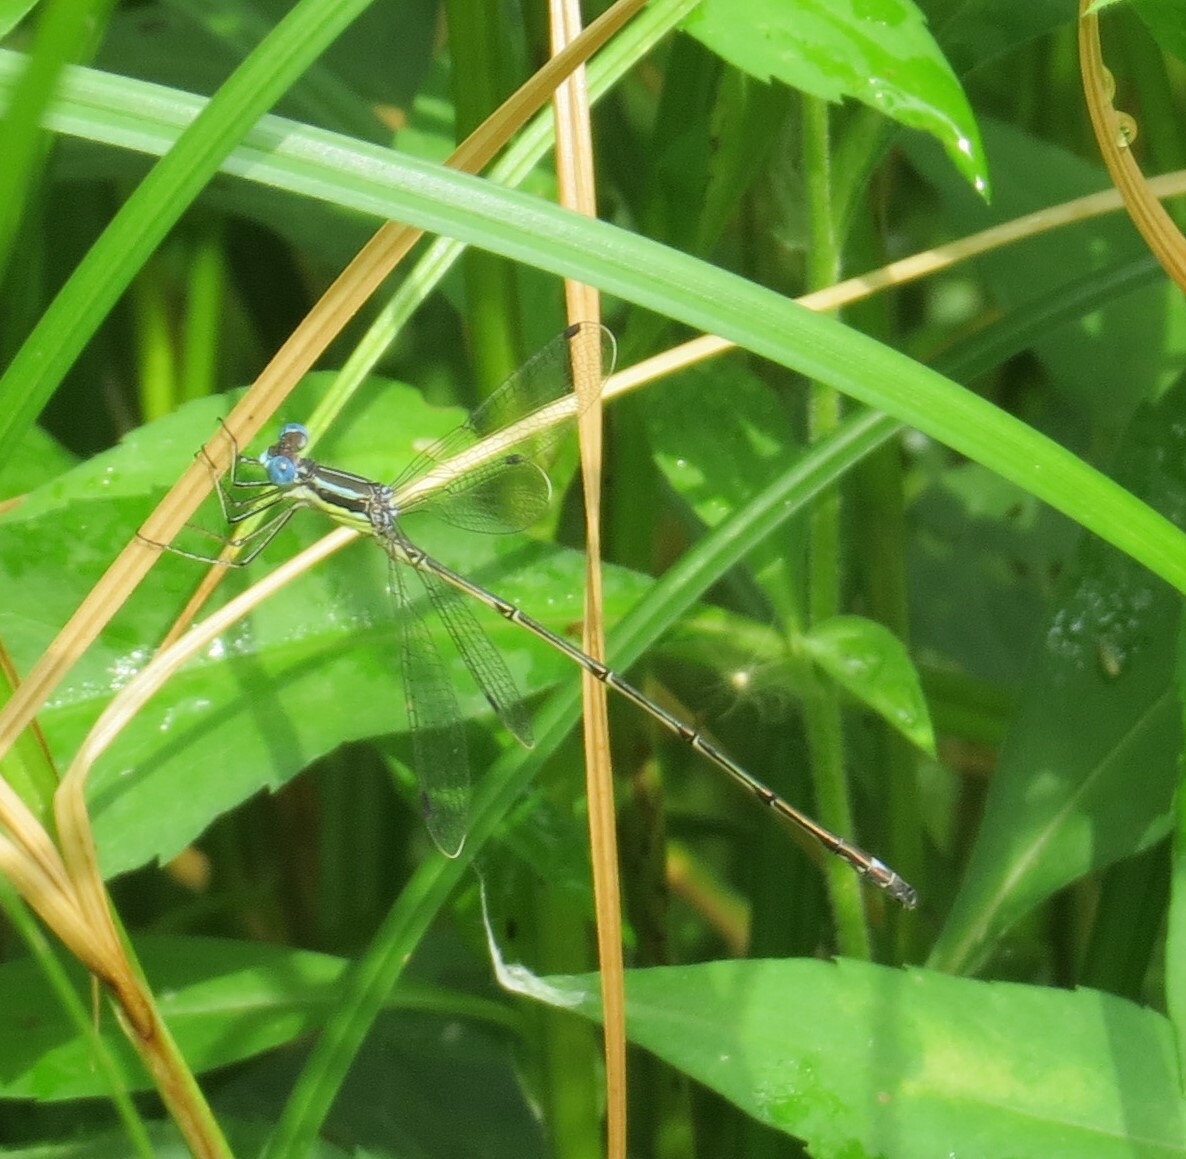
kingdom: Animalia
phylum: Arthropoda
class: Insecta
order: Odonata
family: Lestidae
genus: Lestes
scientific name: Lestes rectangularis
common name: Slender spreadwing
